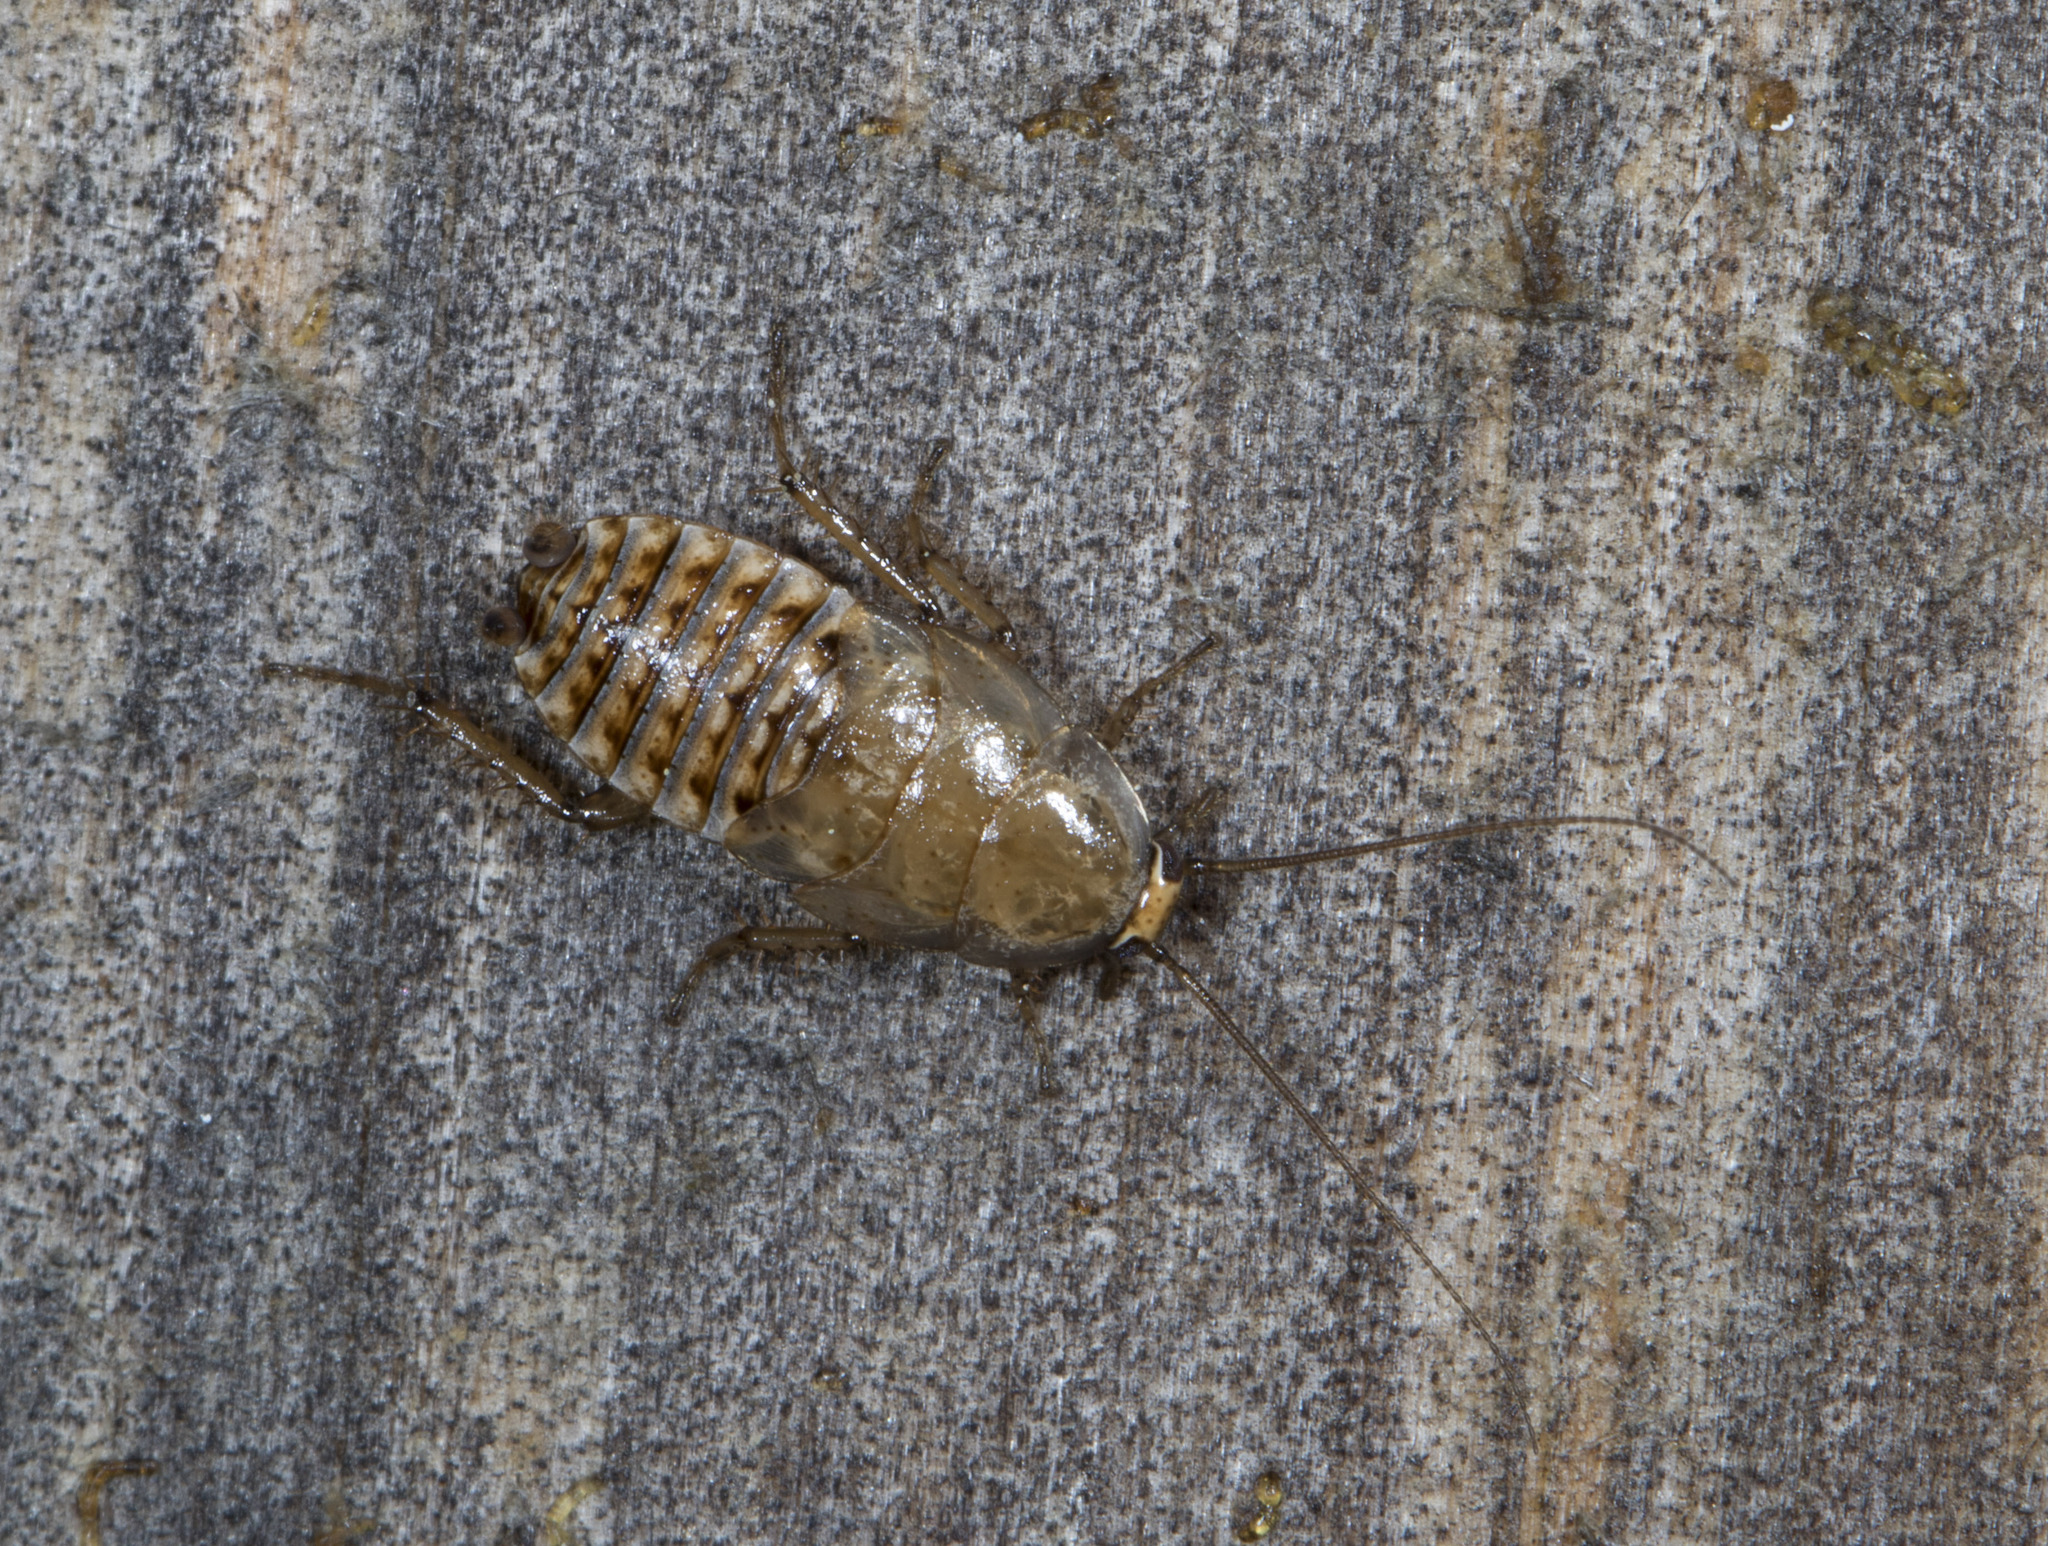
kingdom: Animalia
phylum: Arthropoda
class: Insecta
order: Blattodea
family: Ectobiidae
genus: Ectobius
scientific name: Ectobius
